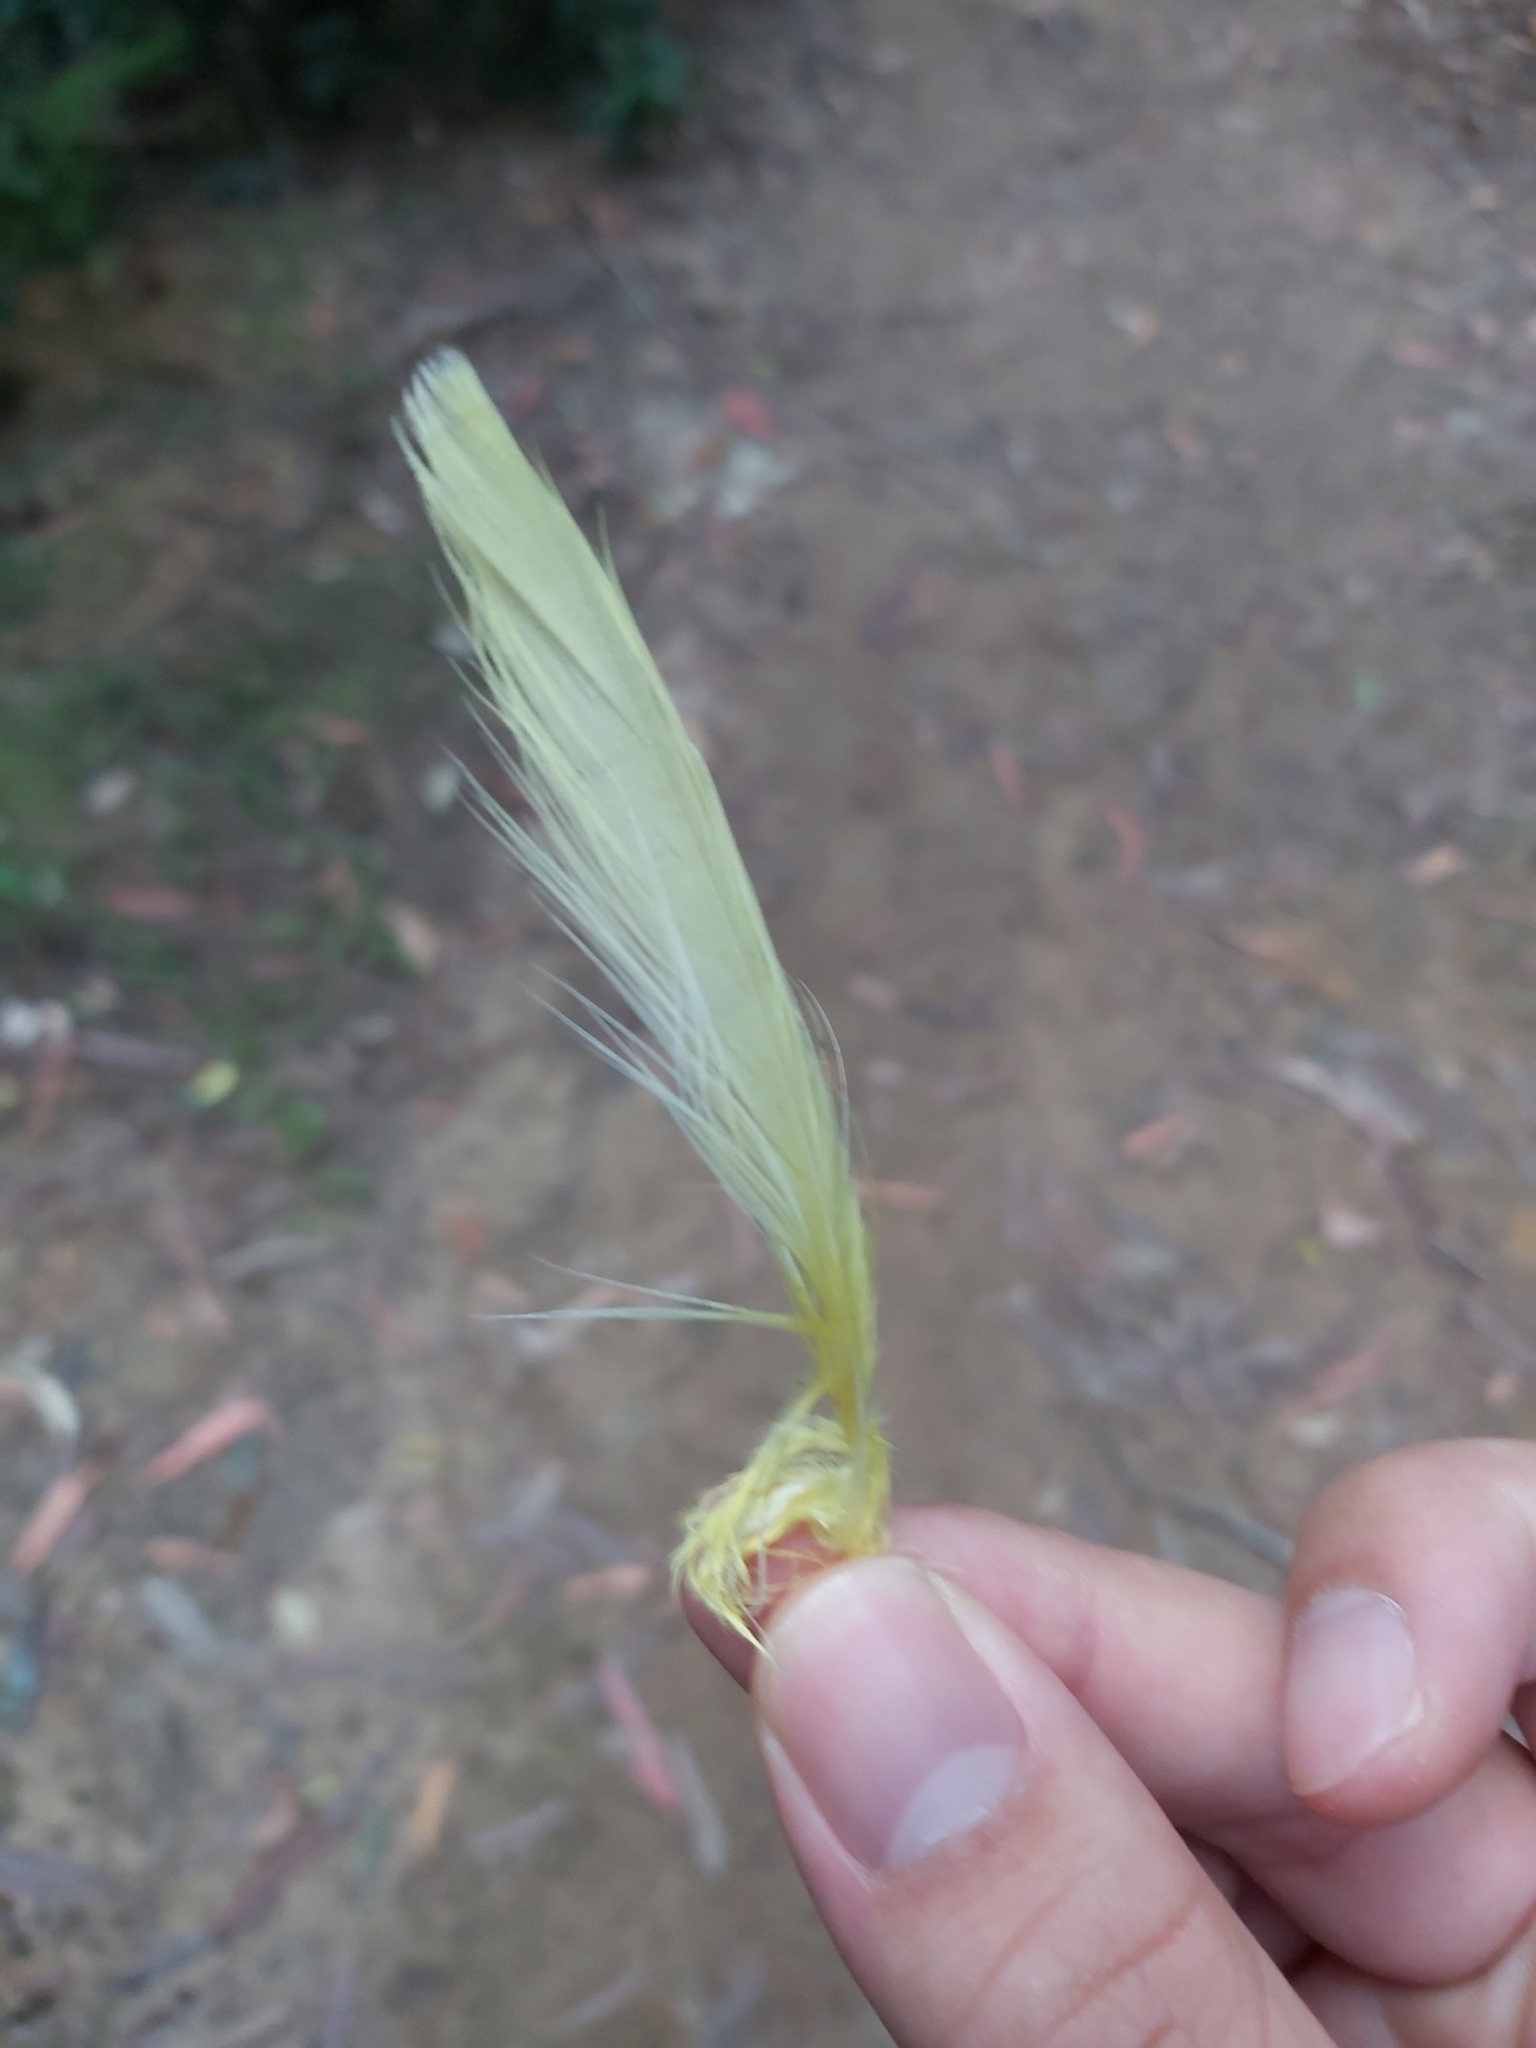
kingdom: Animalia
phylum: Chordata
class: Aves
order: Psittaciformes
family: Psittacidae
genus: Cacatua
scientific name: Cacatua galerita
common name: Sulphur-crested cockatoo
